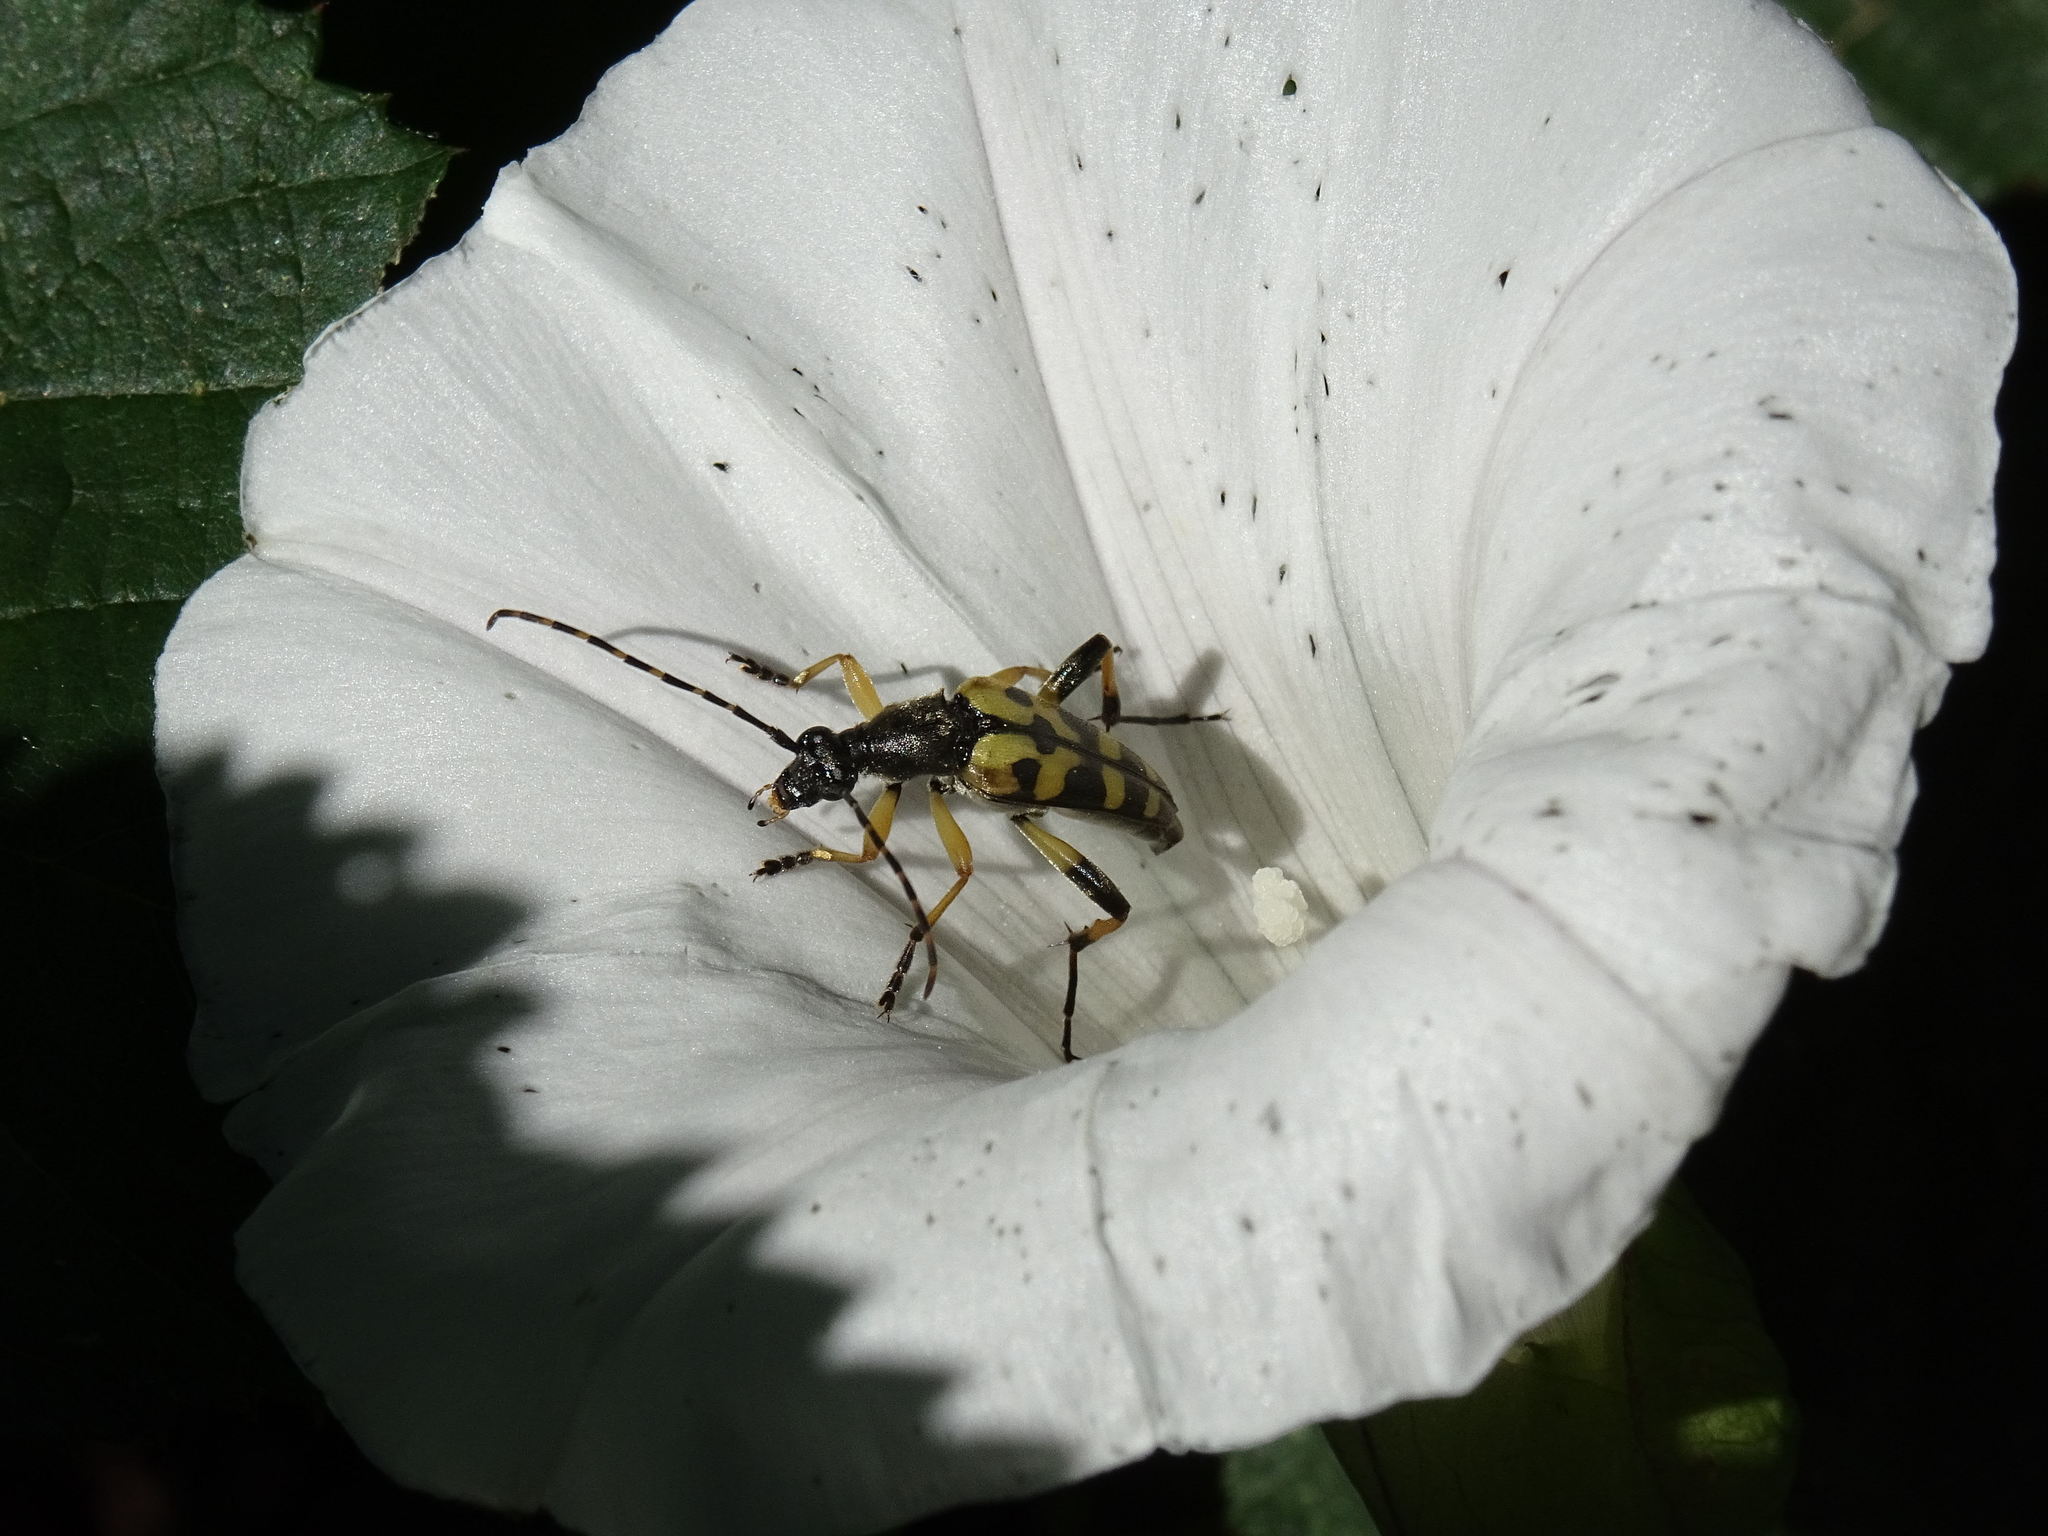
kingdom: Animalia
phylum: Arthropoda
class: Insecta
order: Coleoptera
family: Cerambycidae
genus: Rutpela
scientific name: Rutpela maculata
